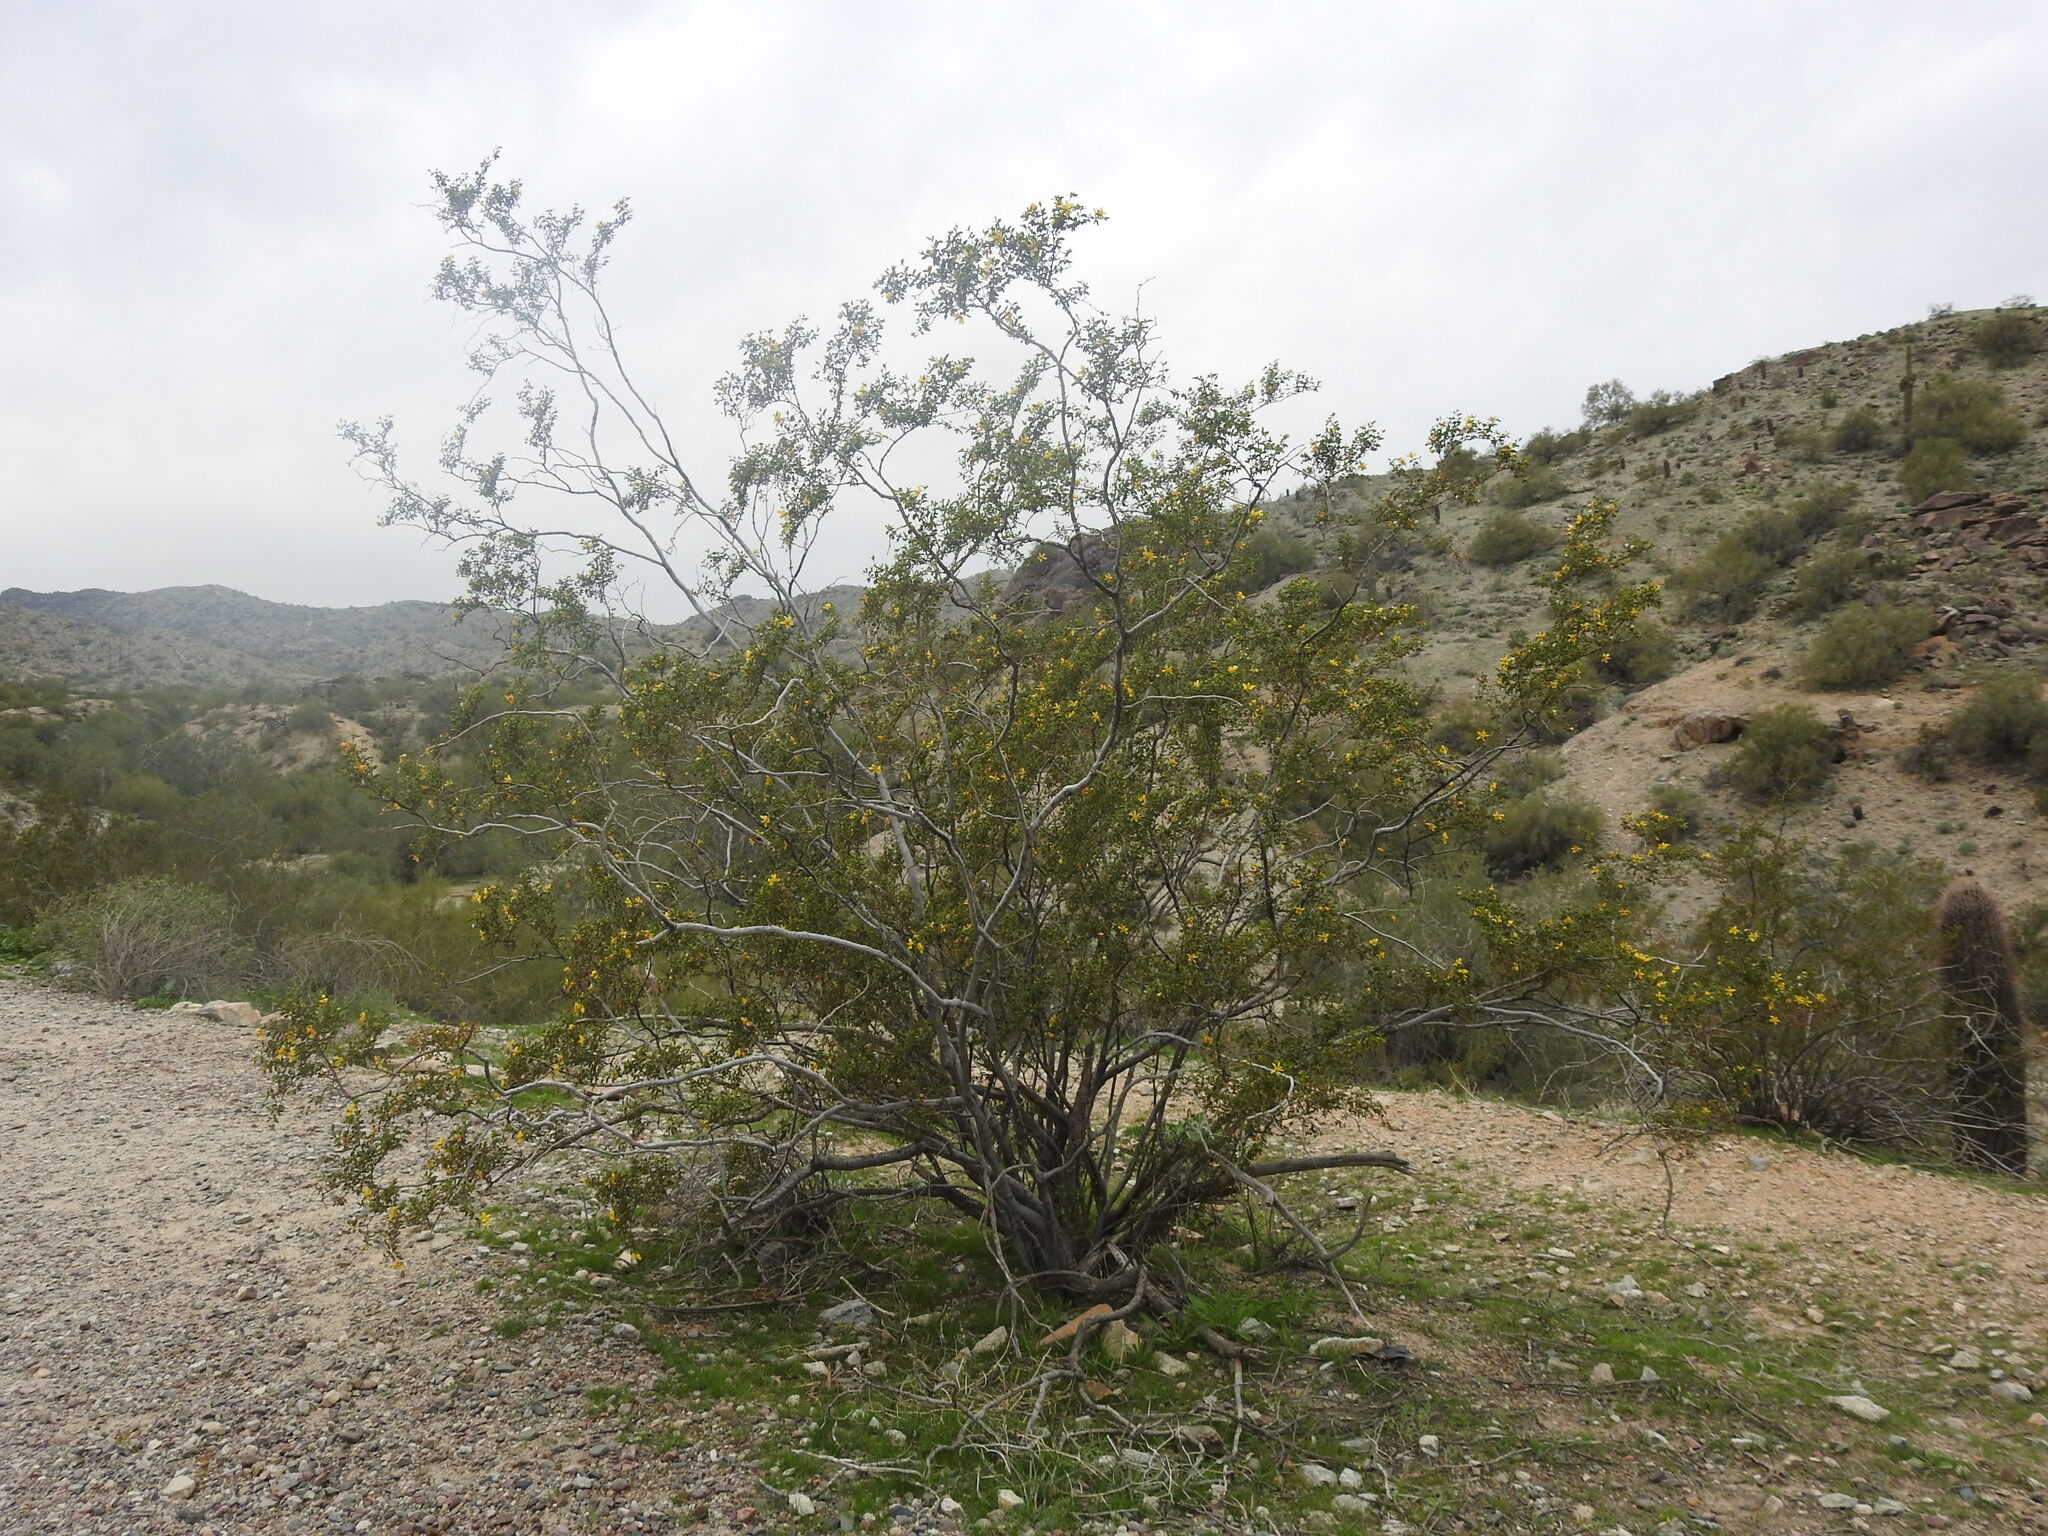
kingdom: Plantae
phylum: Tracheophyta
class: Magnoliopsida
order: Zygophyllales
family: Zygophyllaceae
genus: Larrea
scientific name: Larrea tridentata
